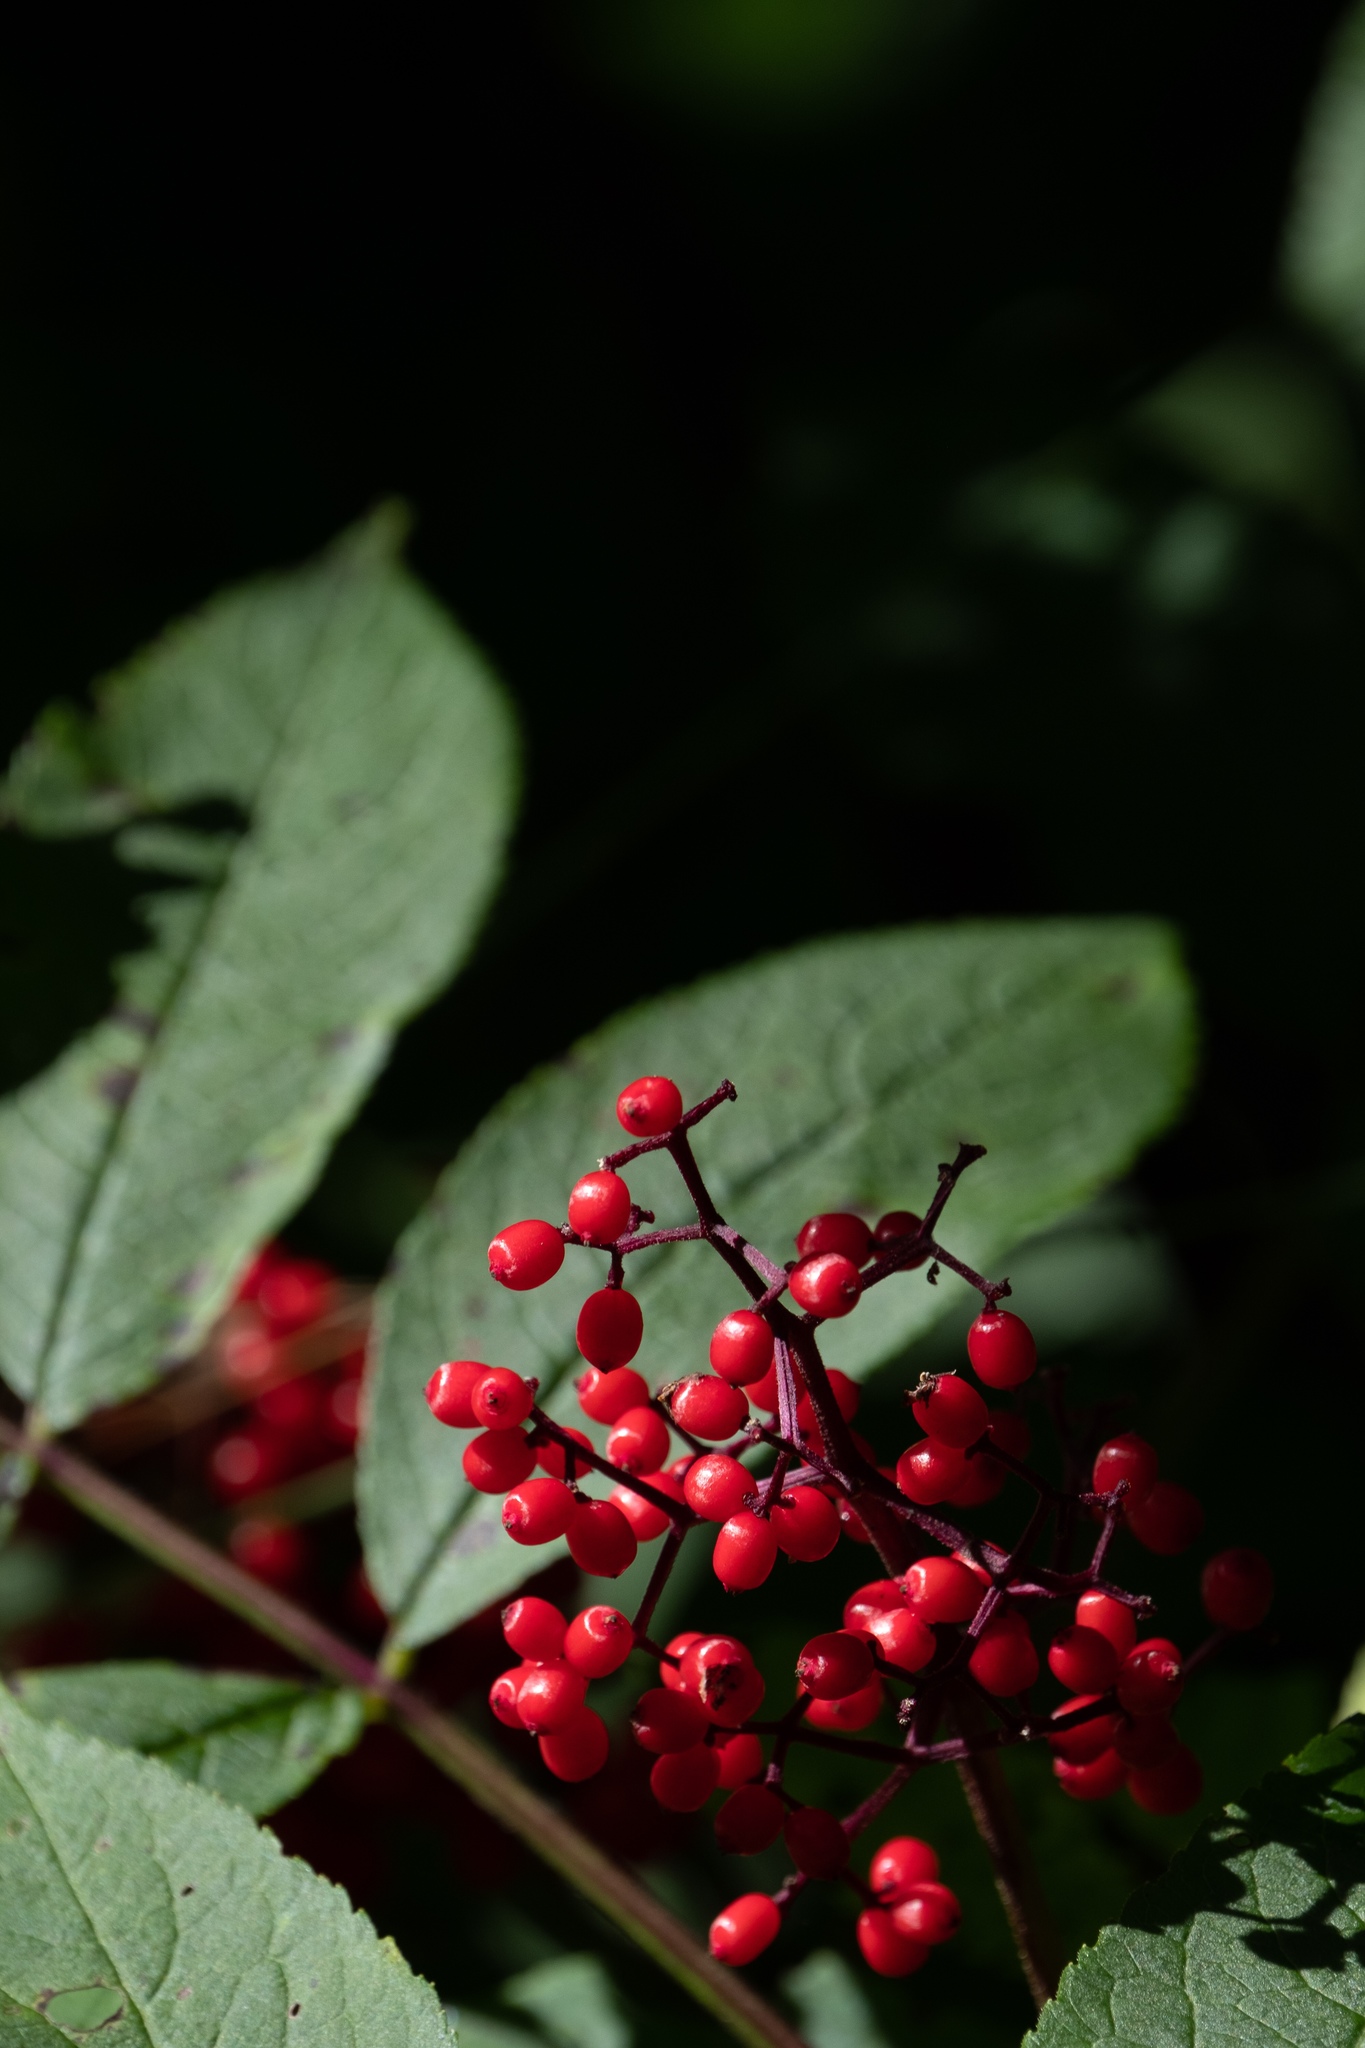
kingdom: Plantae
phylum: Tracheophyta
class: Magnoliopsida
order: Dipsacales
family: Viburnaceae
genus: Sambucus
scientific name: Sambucus racemosa
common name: Red-berried elder
